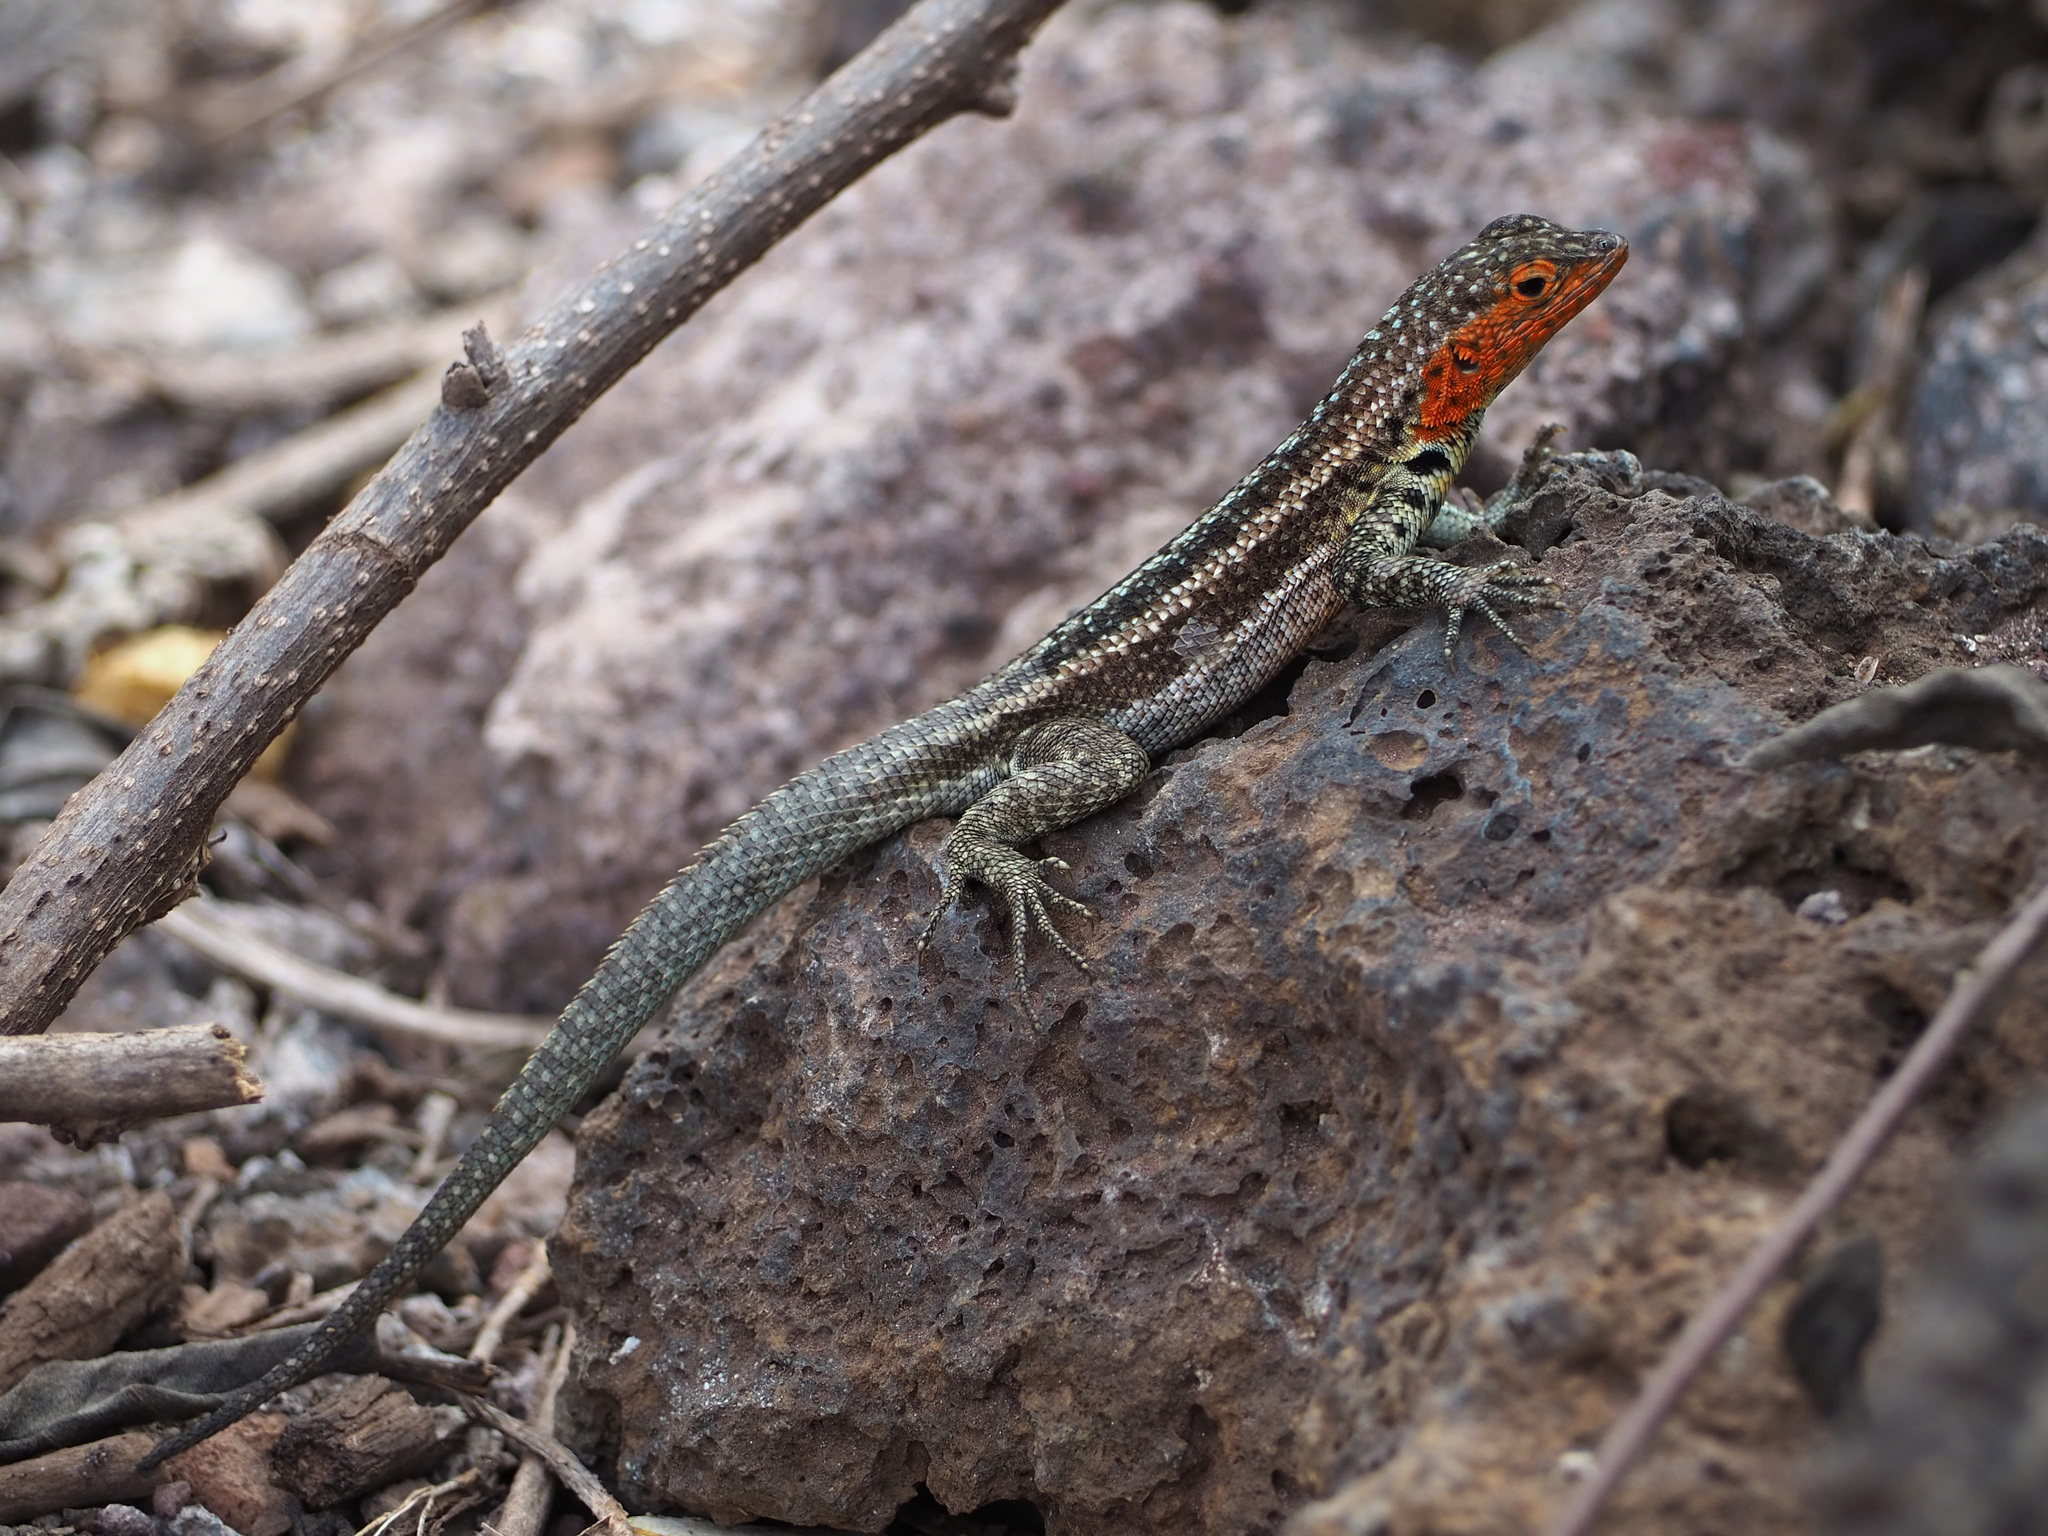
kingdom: Animalia
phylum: Chordata
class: Squamata
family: Tropiduridae
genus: Microlophus
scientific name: Microlophus indefatigabilis
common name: Galapagos lava lizard
